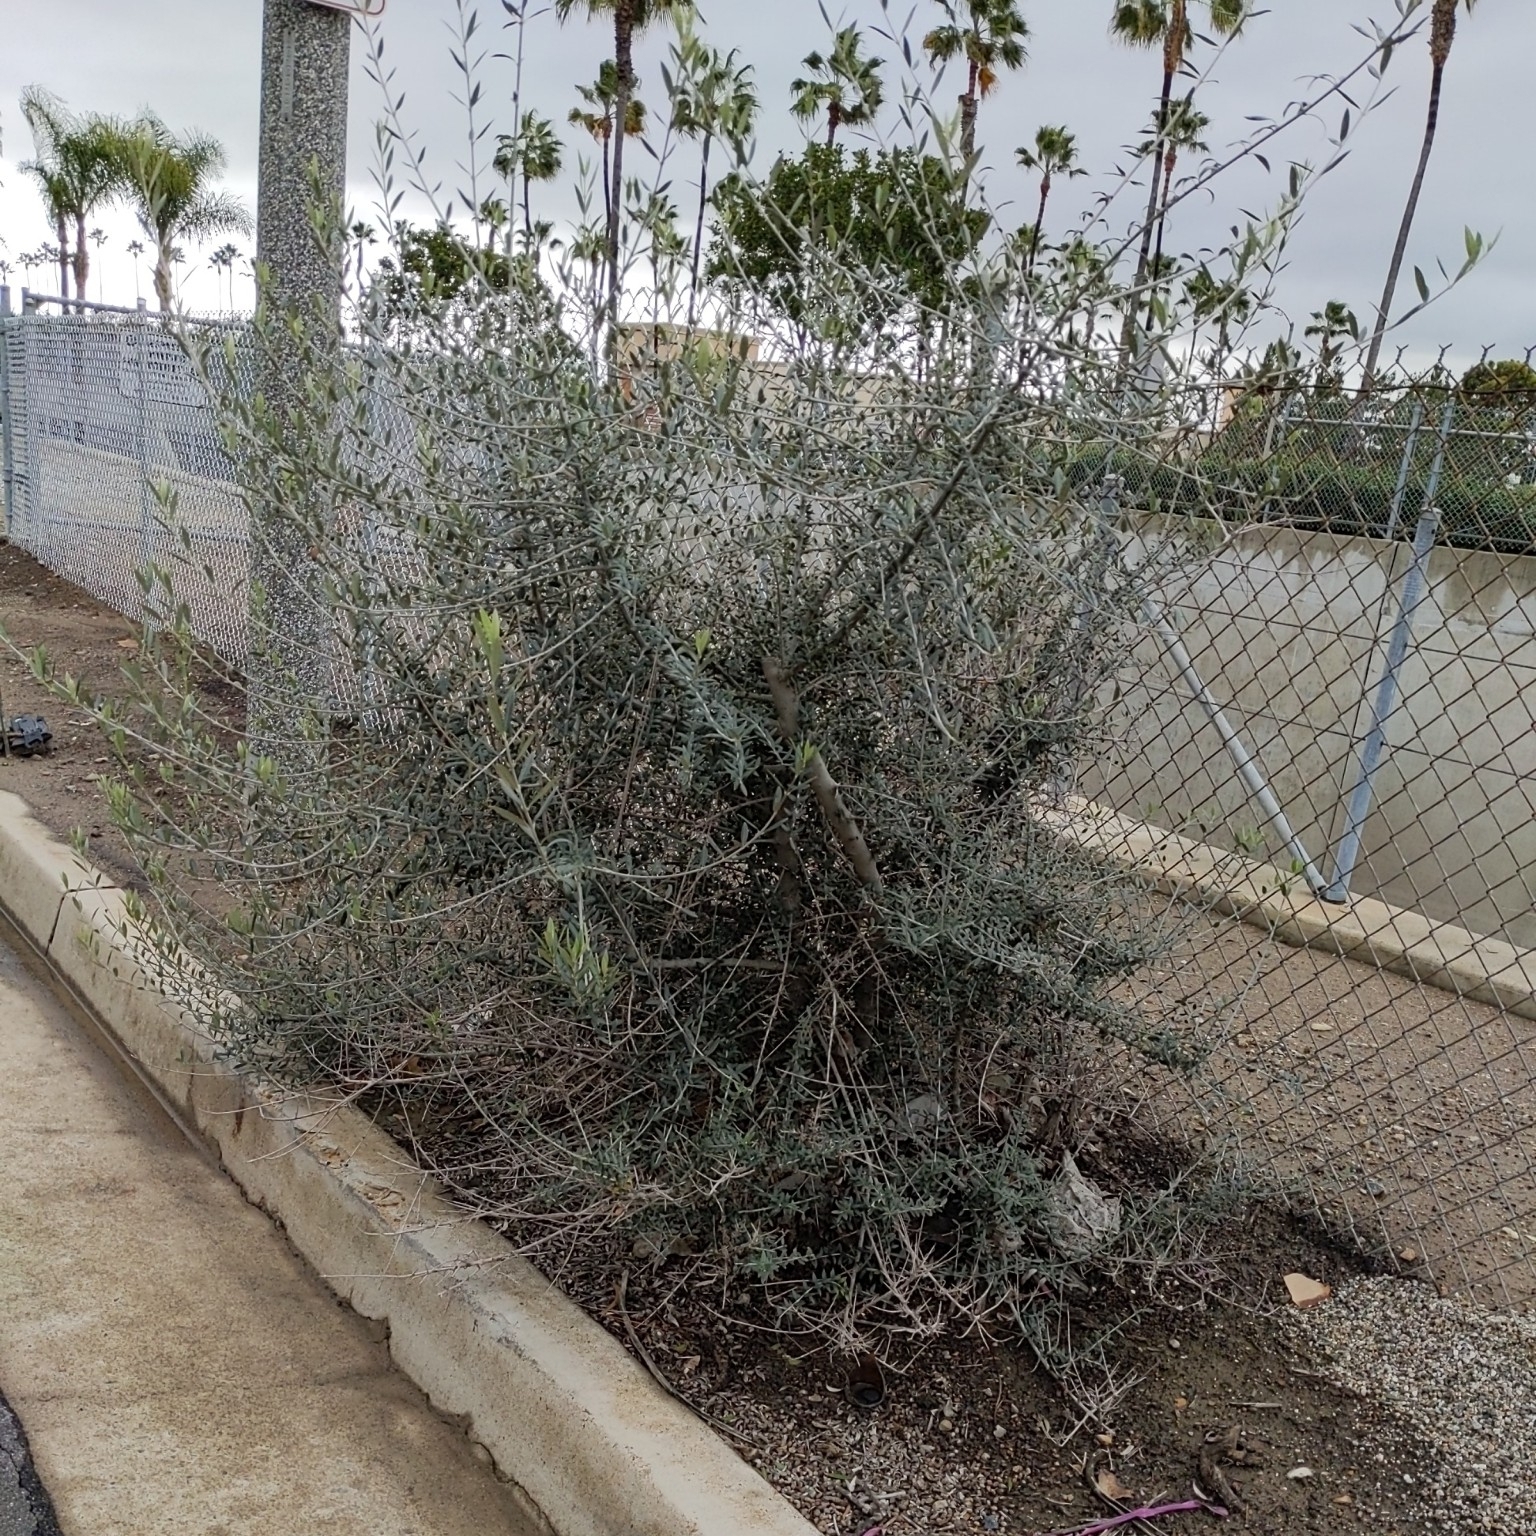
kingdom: Plantae
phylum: Tracheophyta
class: Magnoliopsida
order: Lamiales
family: Oleaceae
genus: Olea
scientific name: Olea europaea
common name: Olive
